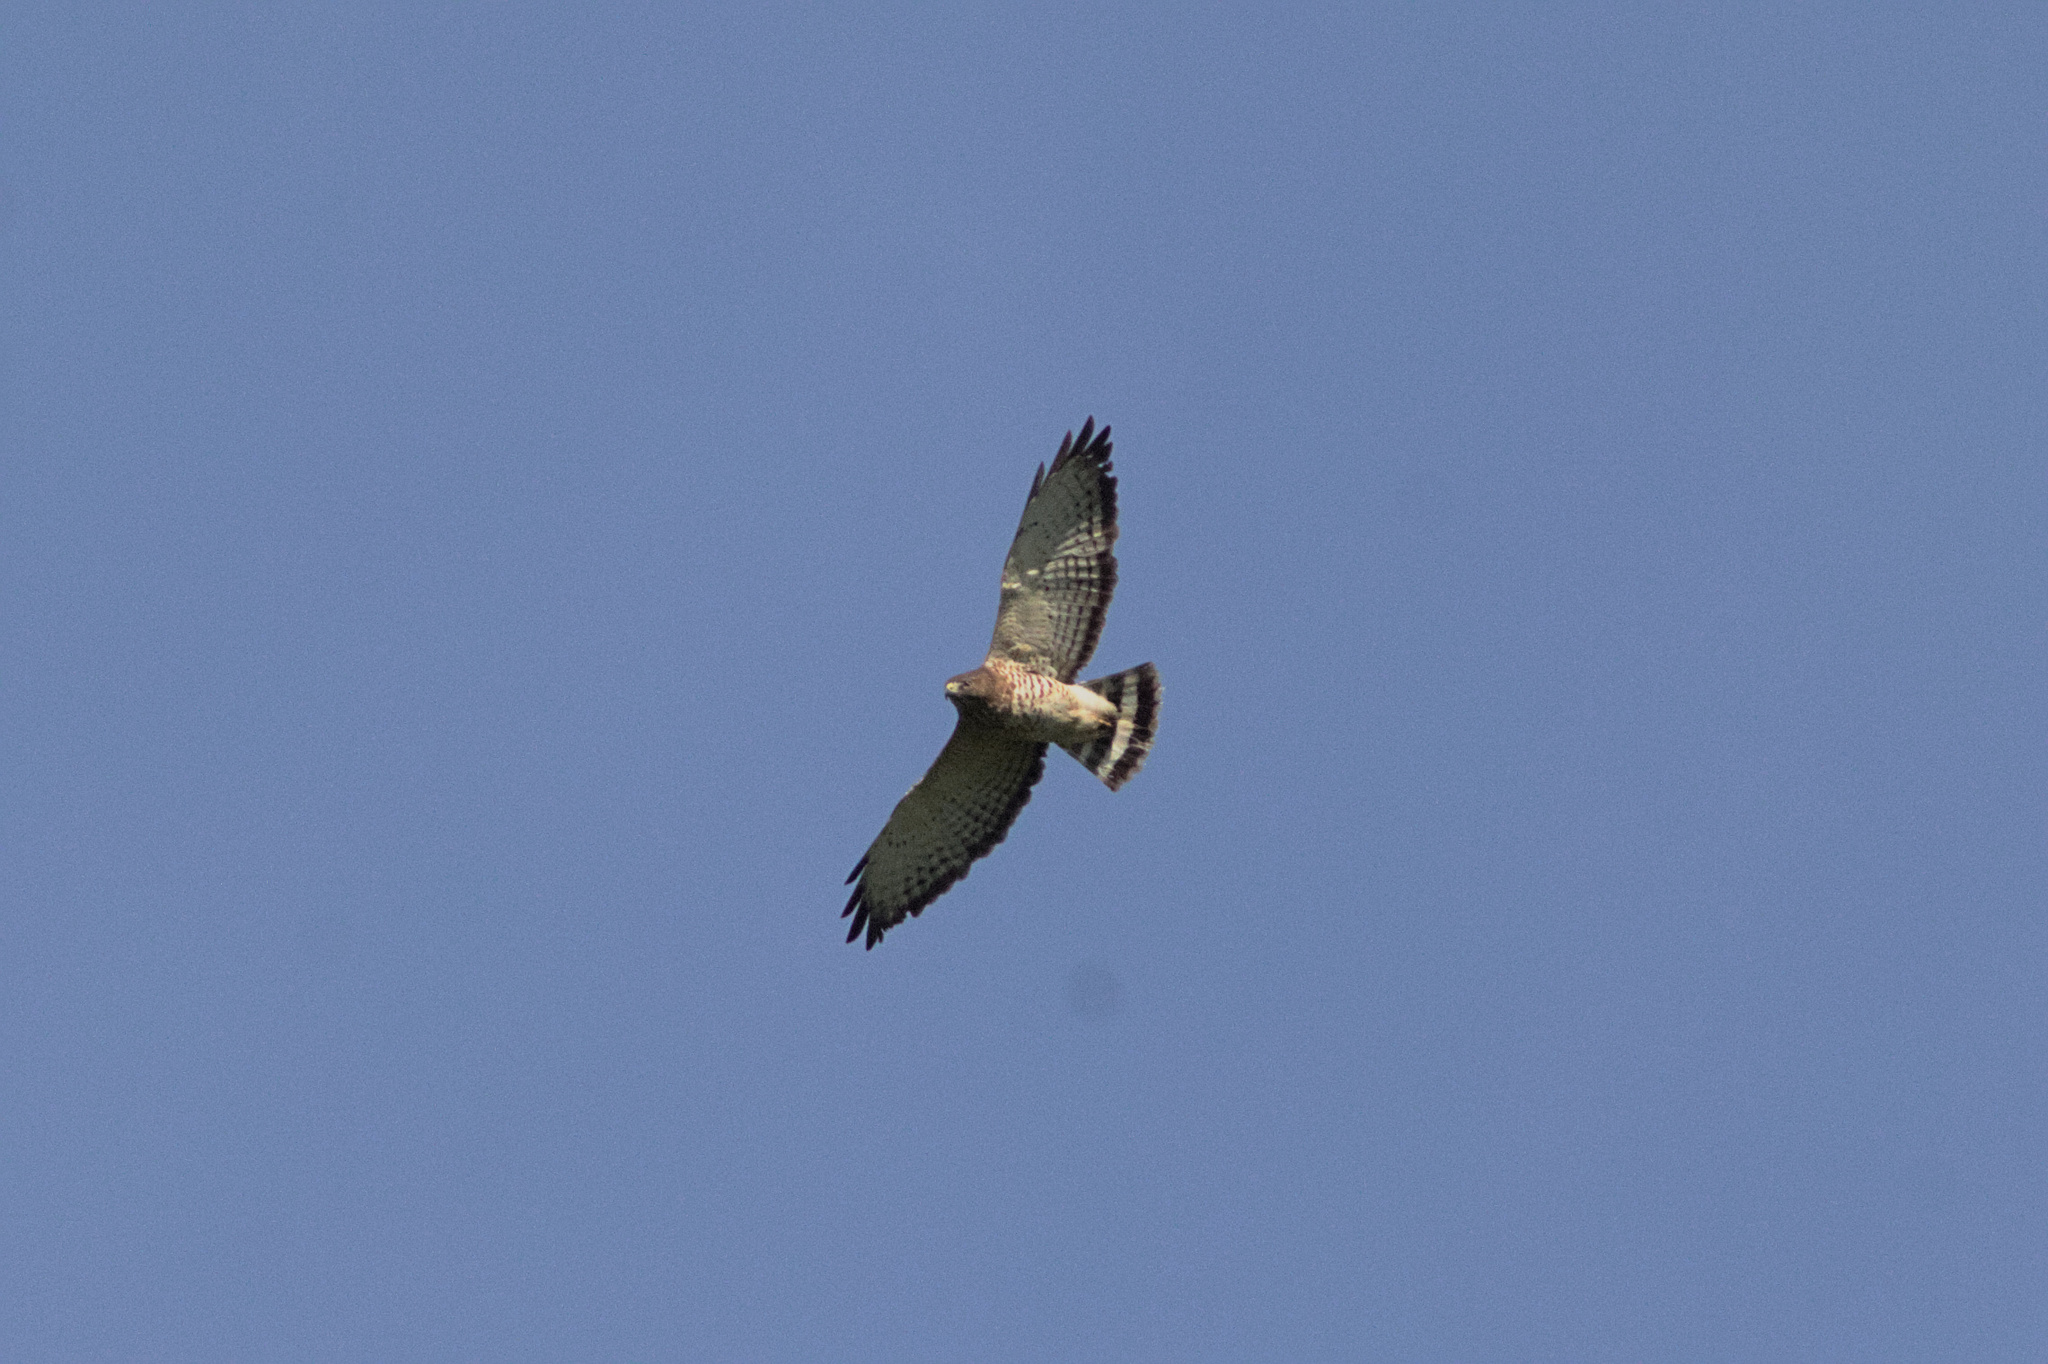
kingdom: Animalia
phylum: Chordata
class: Aves
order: Accipitriformes
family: Accipitridae
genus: Buteo
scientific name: Buteo platypterus
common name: Broad-winged hawk
